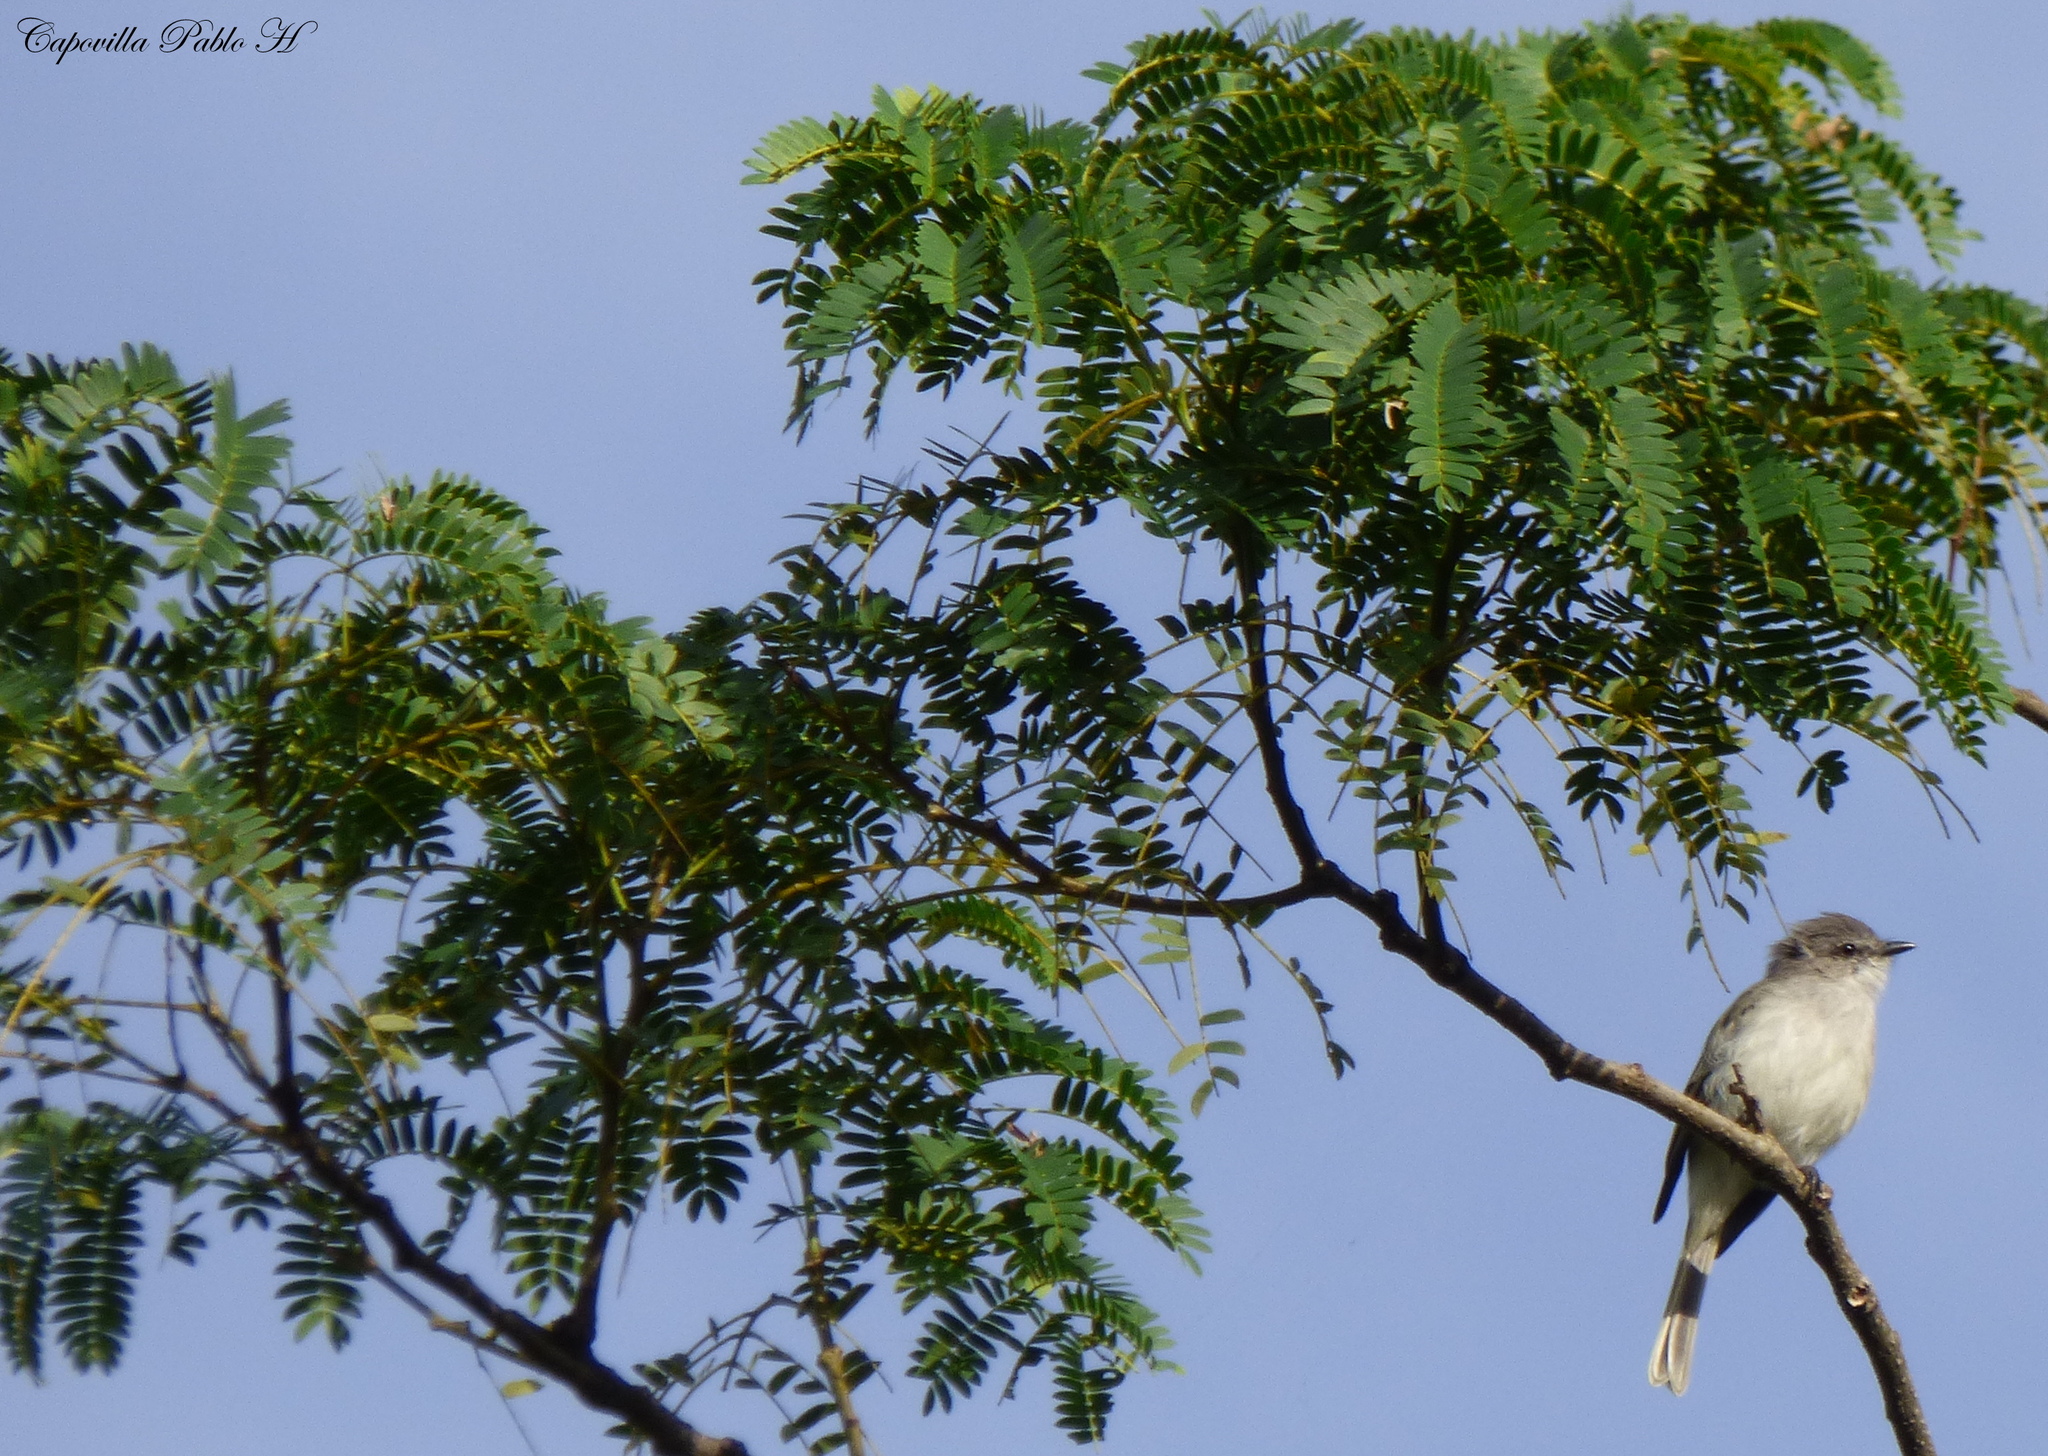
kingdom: Animalia
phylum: Chordata
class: Aves
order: Passeriformes
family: Tyrannidae
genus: Suiriri
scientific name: Suiriri suiriri
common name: Suiriri flycatcher
